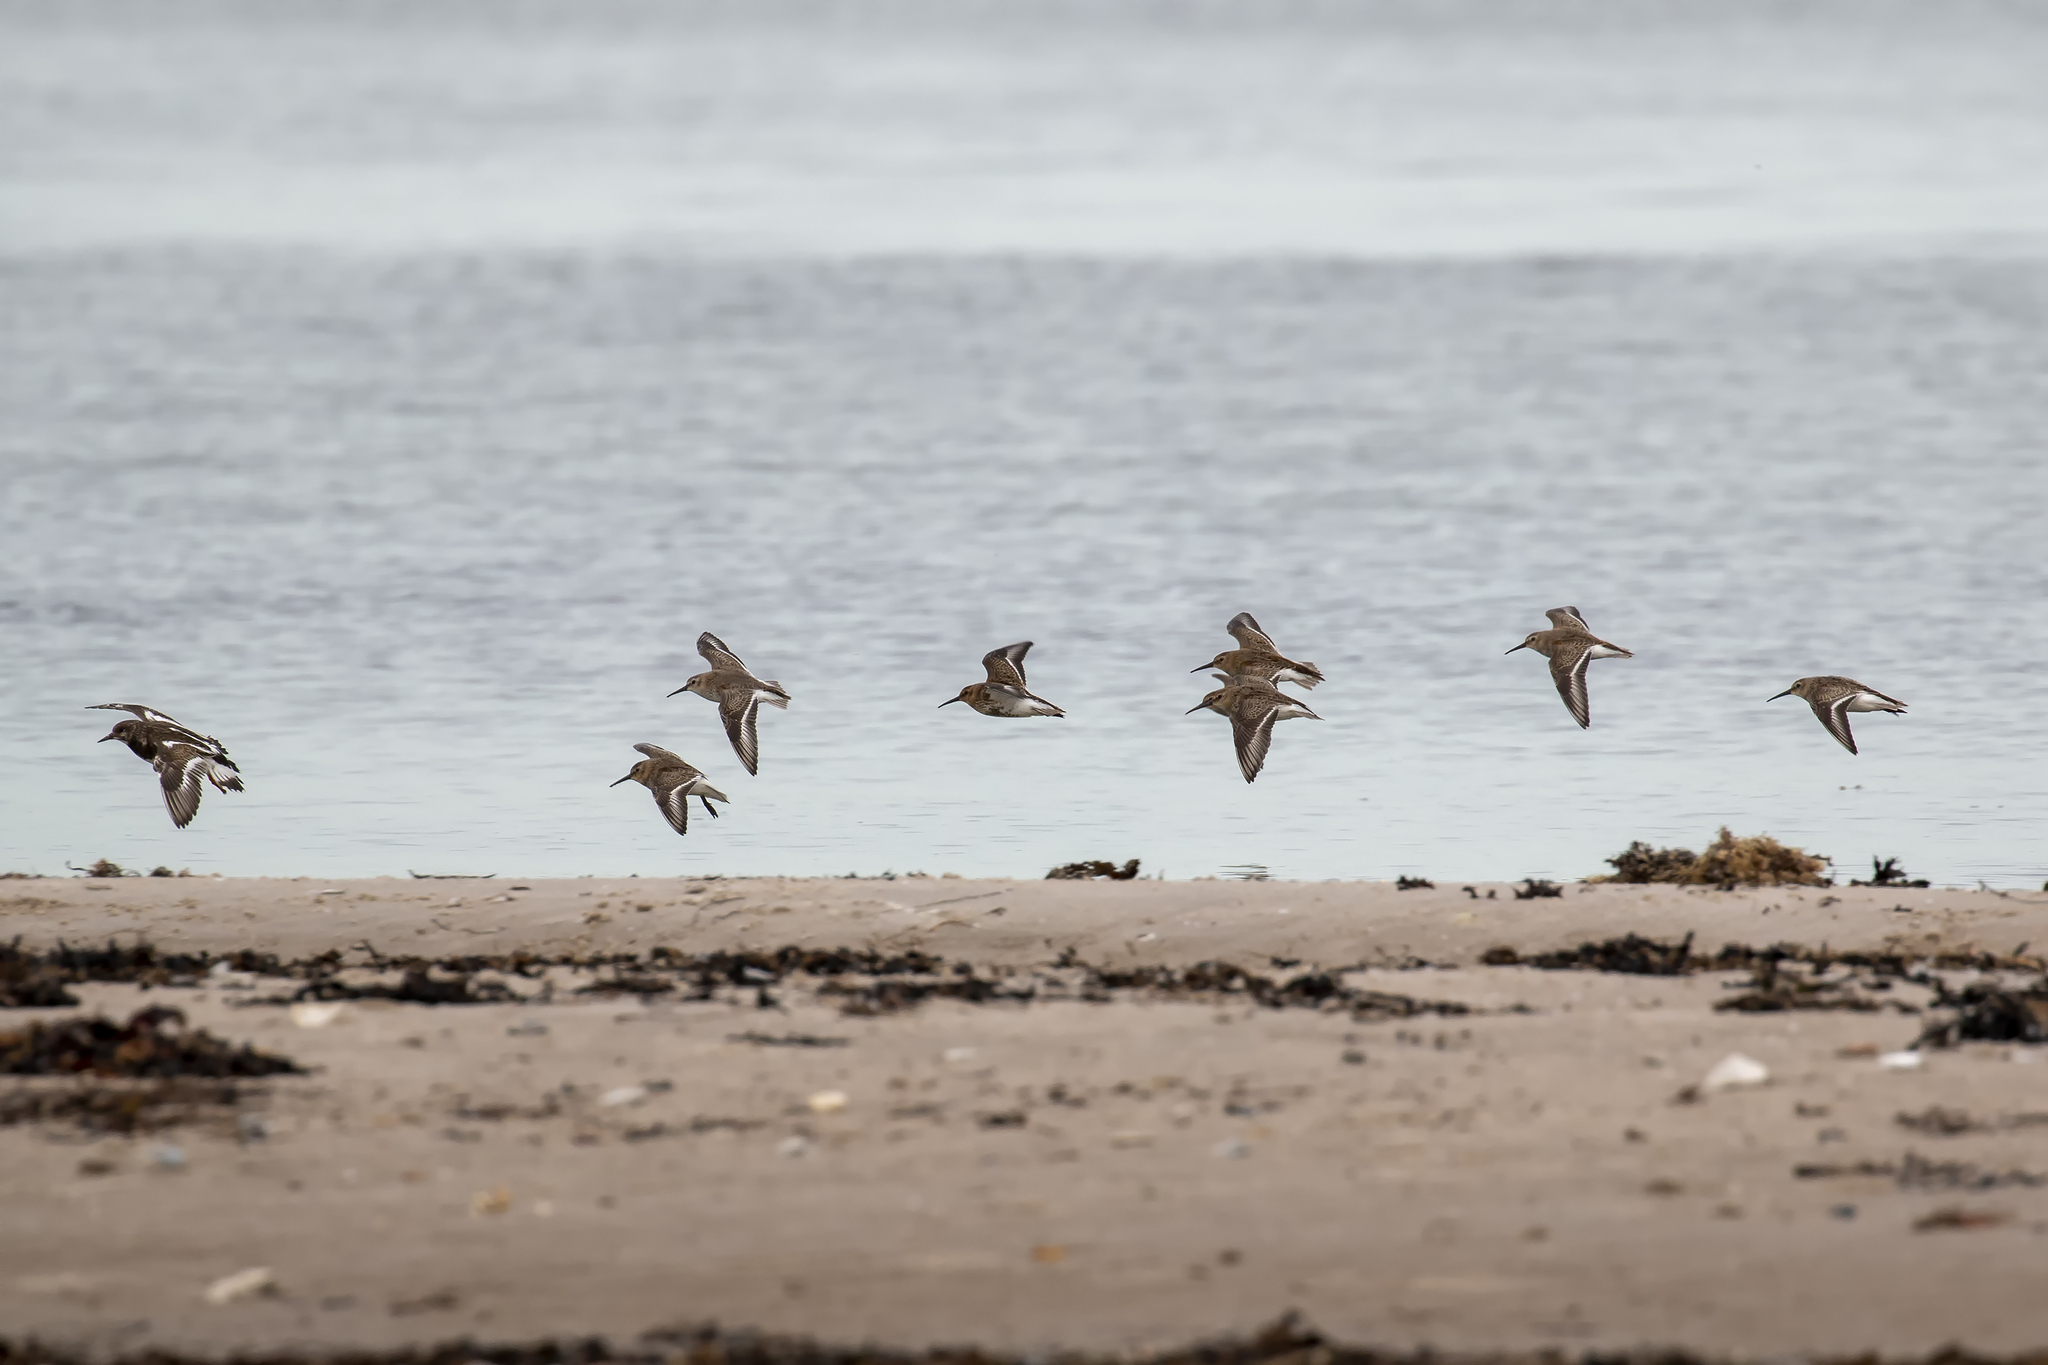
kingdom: Animalia
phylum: Chordata
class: Aves
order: Charadriiformes
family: Scolopacidae
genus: Calidris
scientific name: Calidris alpina
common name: Dunlin
